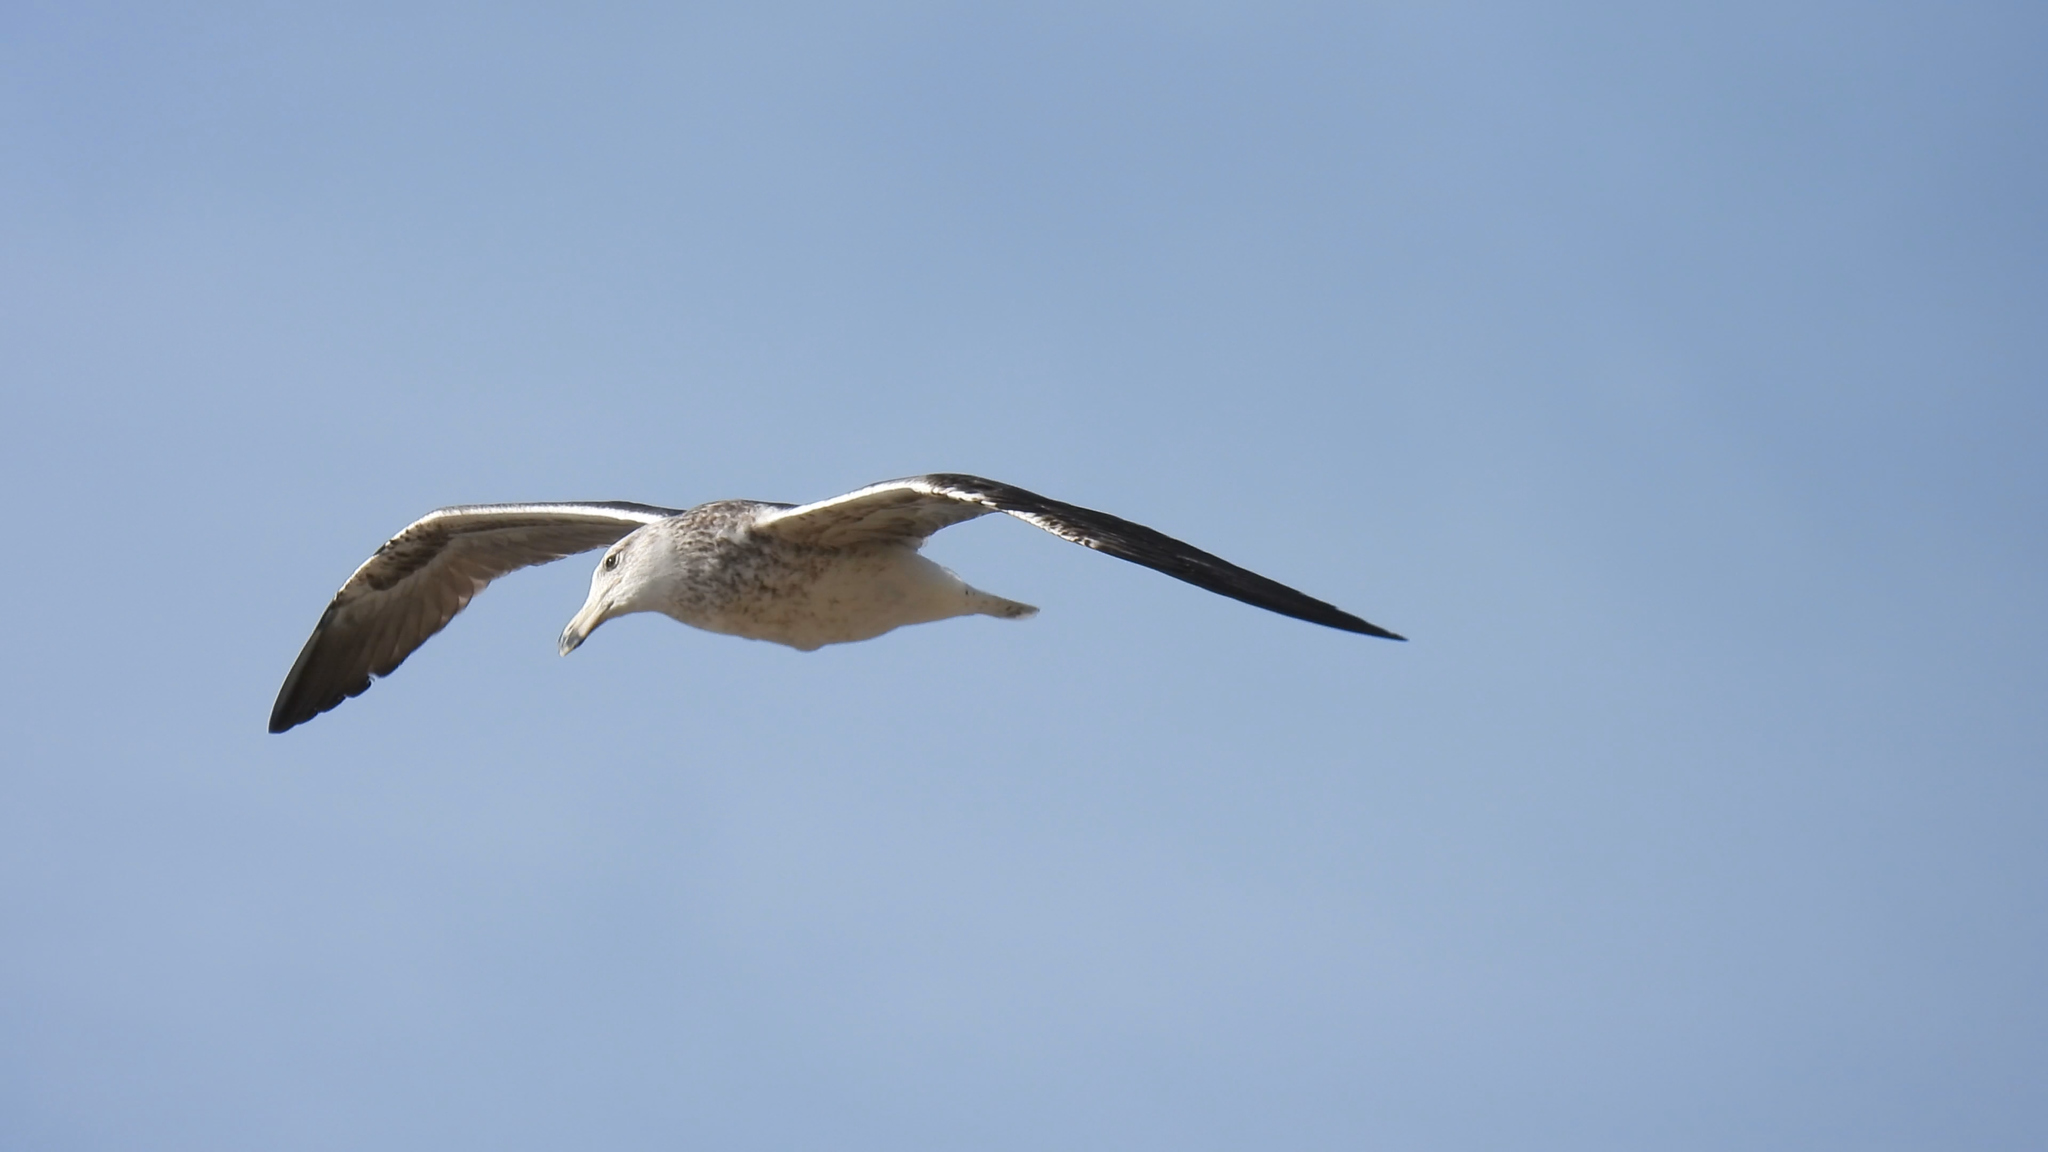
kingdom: Animalia
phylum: Chordata
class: Aves
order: Charadriiformes
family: Laridae
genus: Larus
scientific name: Larus dominicanus
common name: Kelp gull
